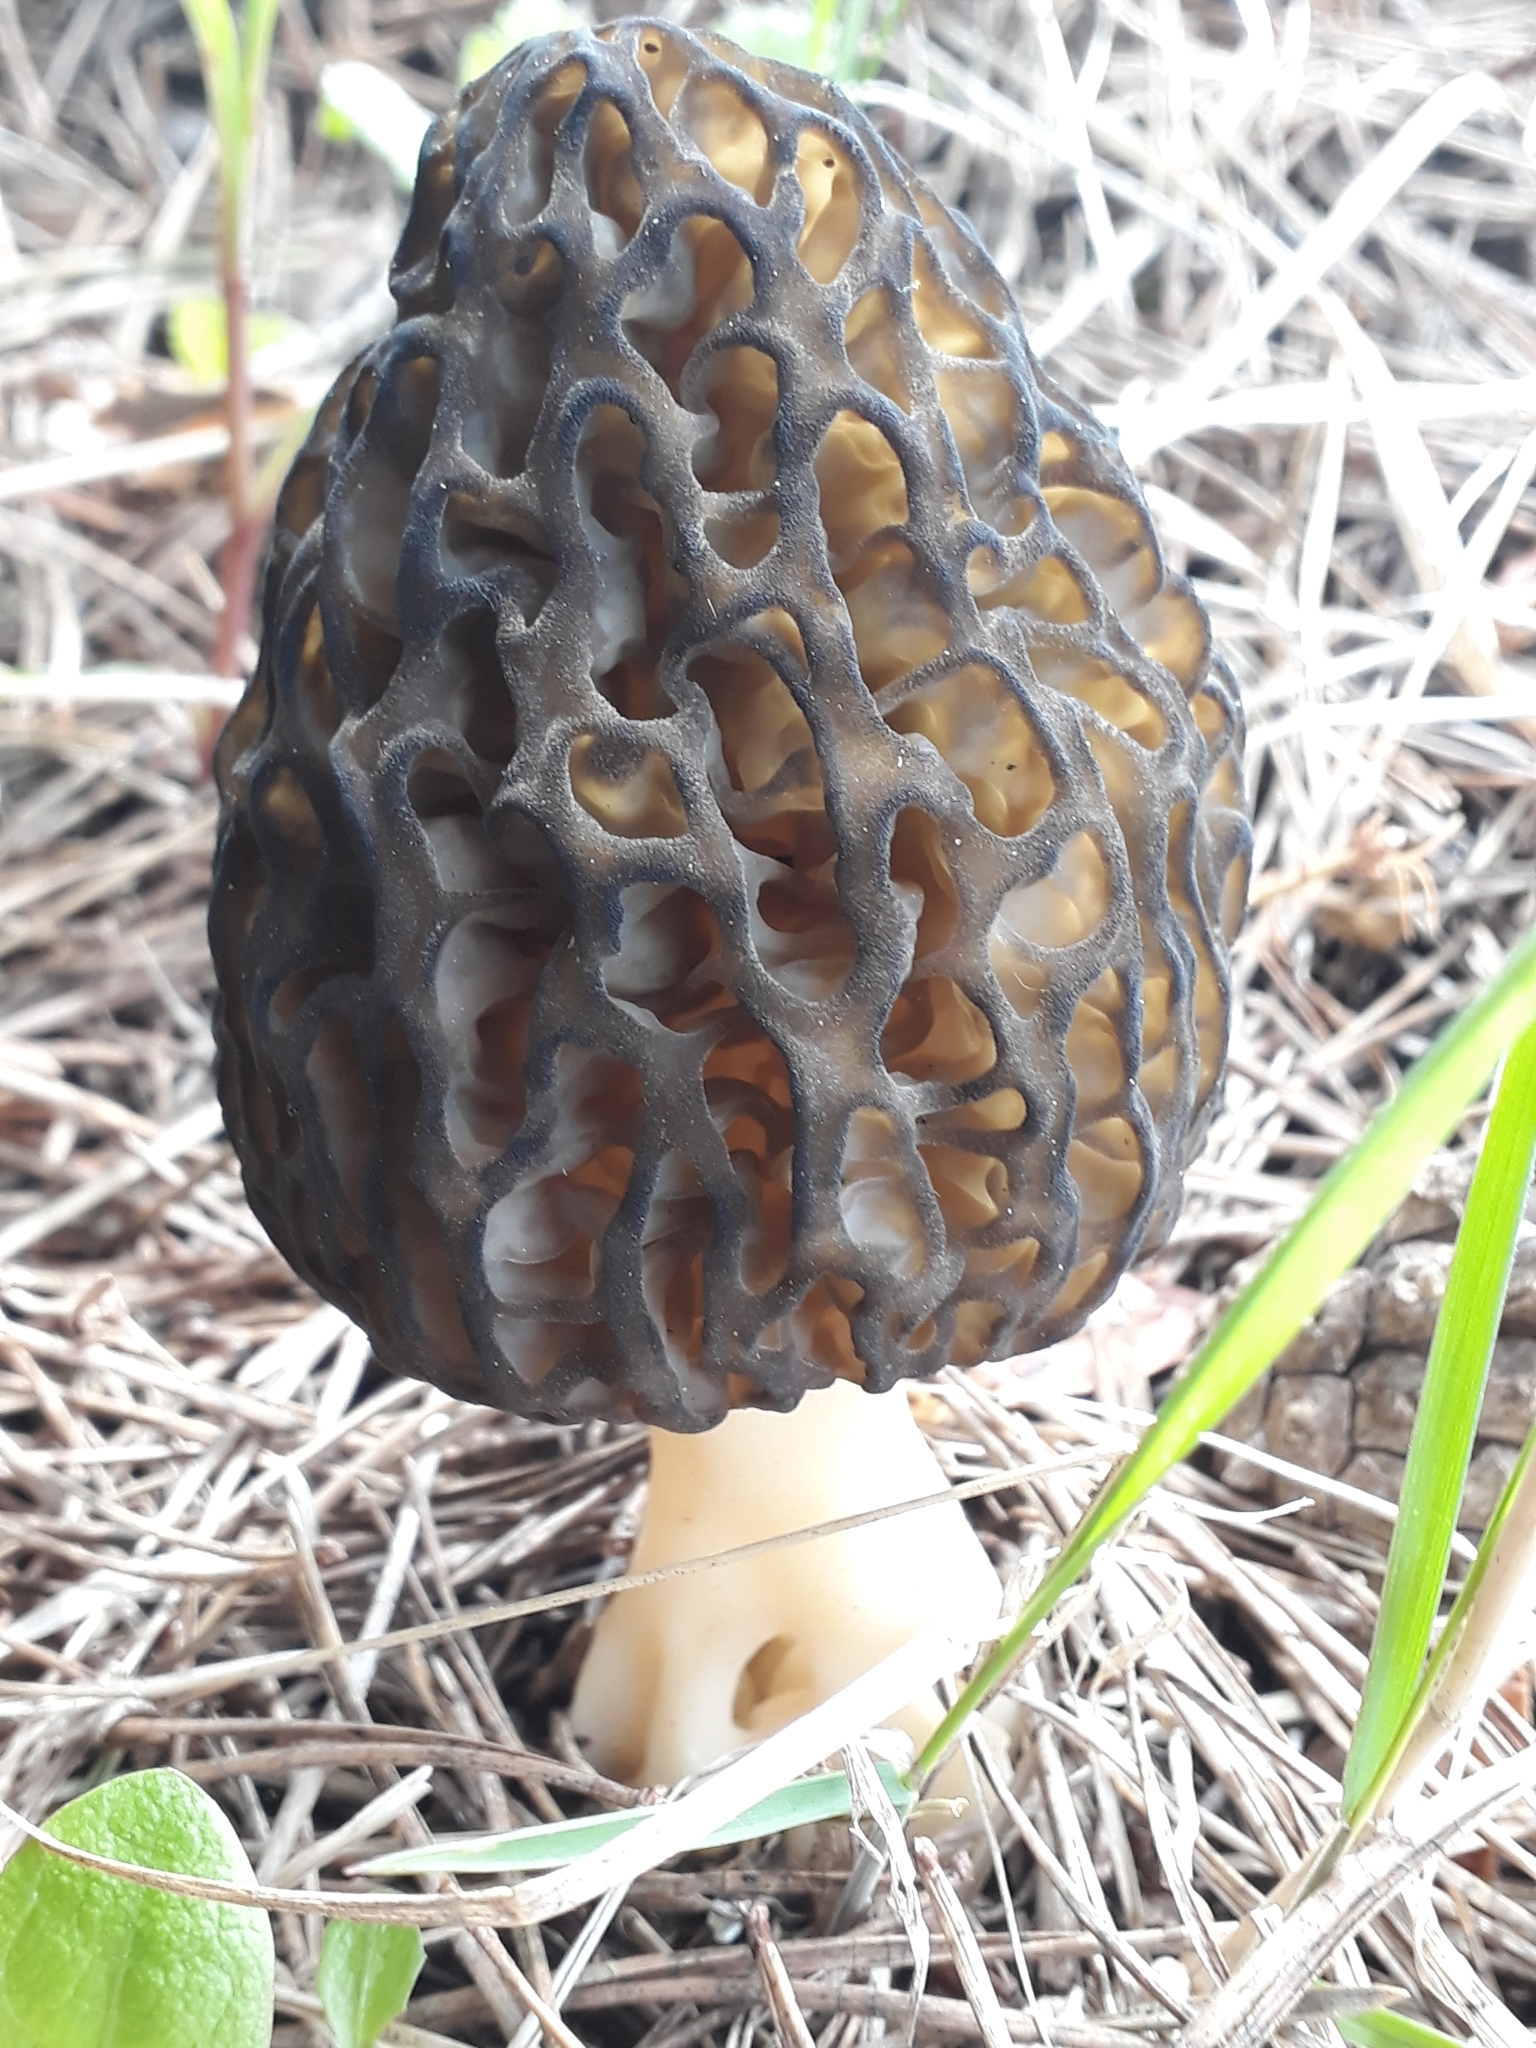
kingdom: Fungi
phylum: Ascomycota
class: Pezizomycetes
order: Pezizales
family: Morchellaceae
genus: Morchella
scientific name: Morchella
